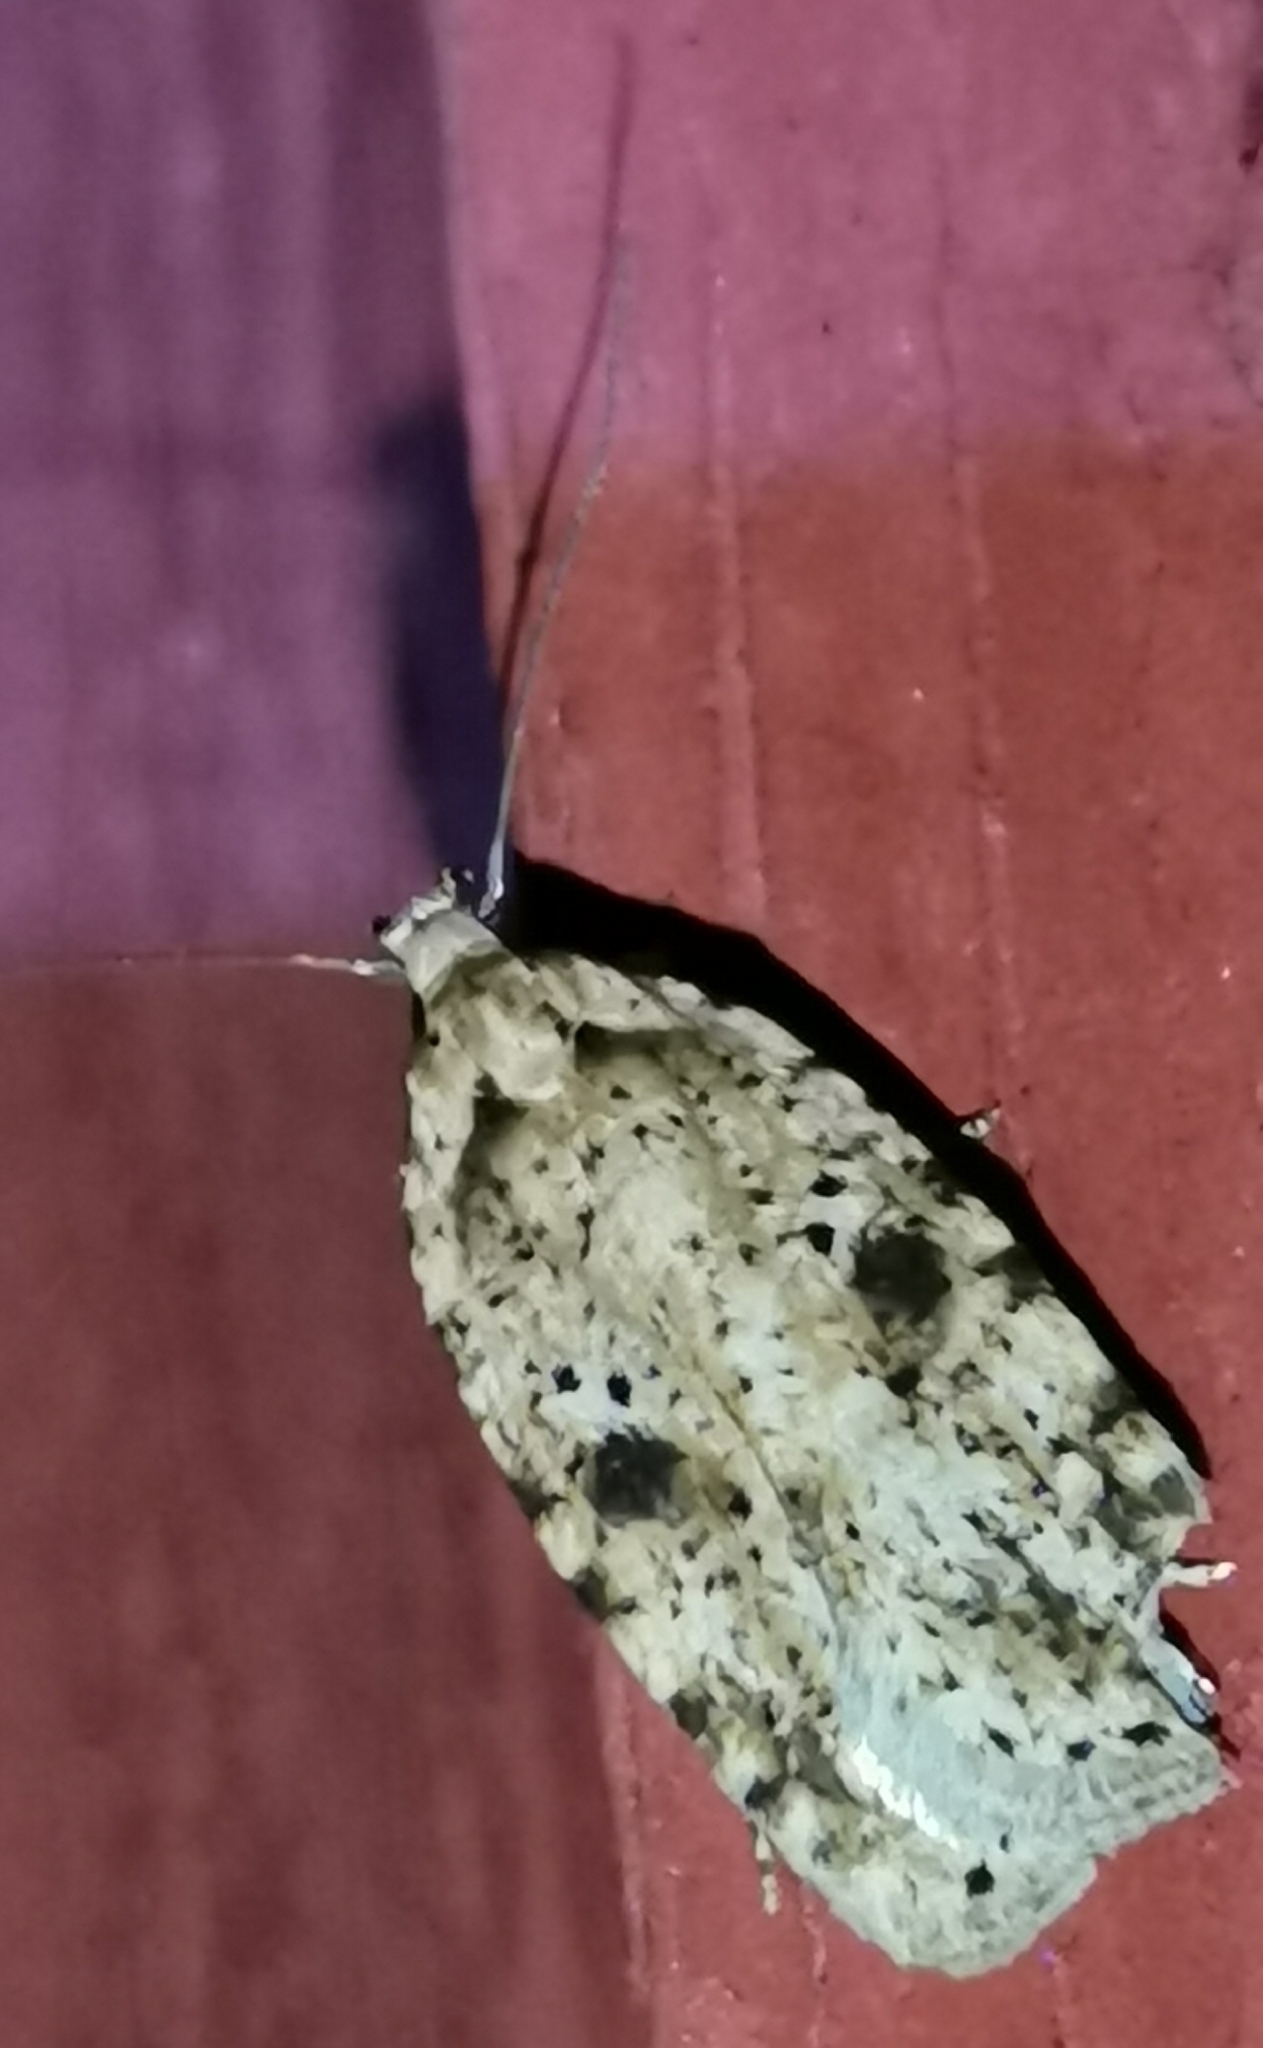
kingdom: Animalia
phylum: Arthropoda
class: Insecta
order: Lepidoptera
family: Depressariidae
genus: Agonopterix
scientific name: Agonopterix arenella
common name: Brindled flat-body
